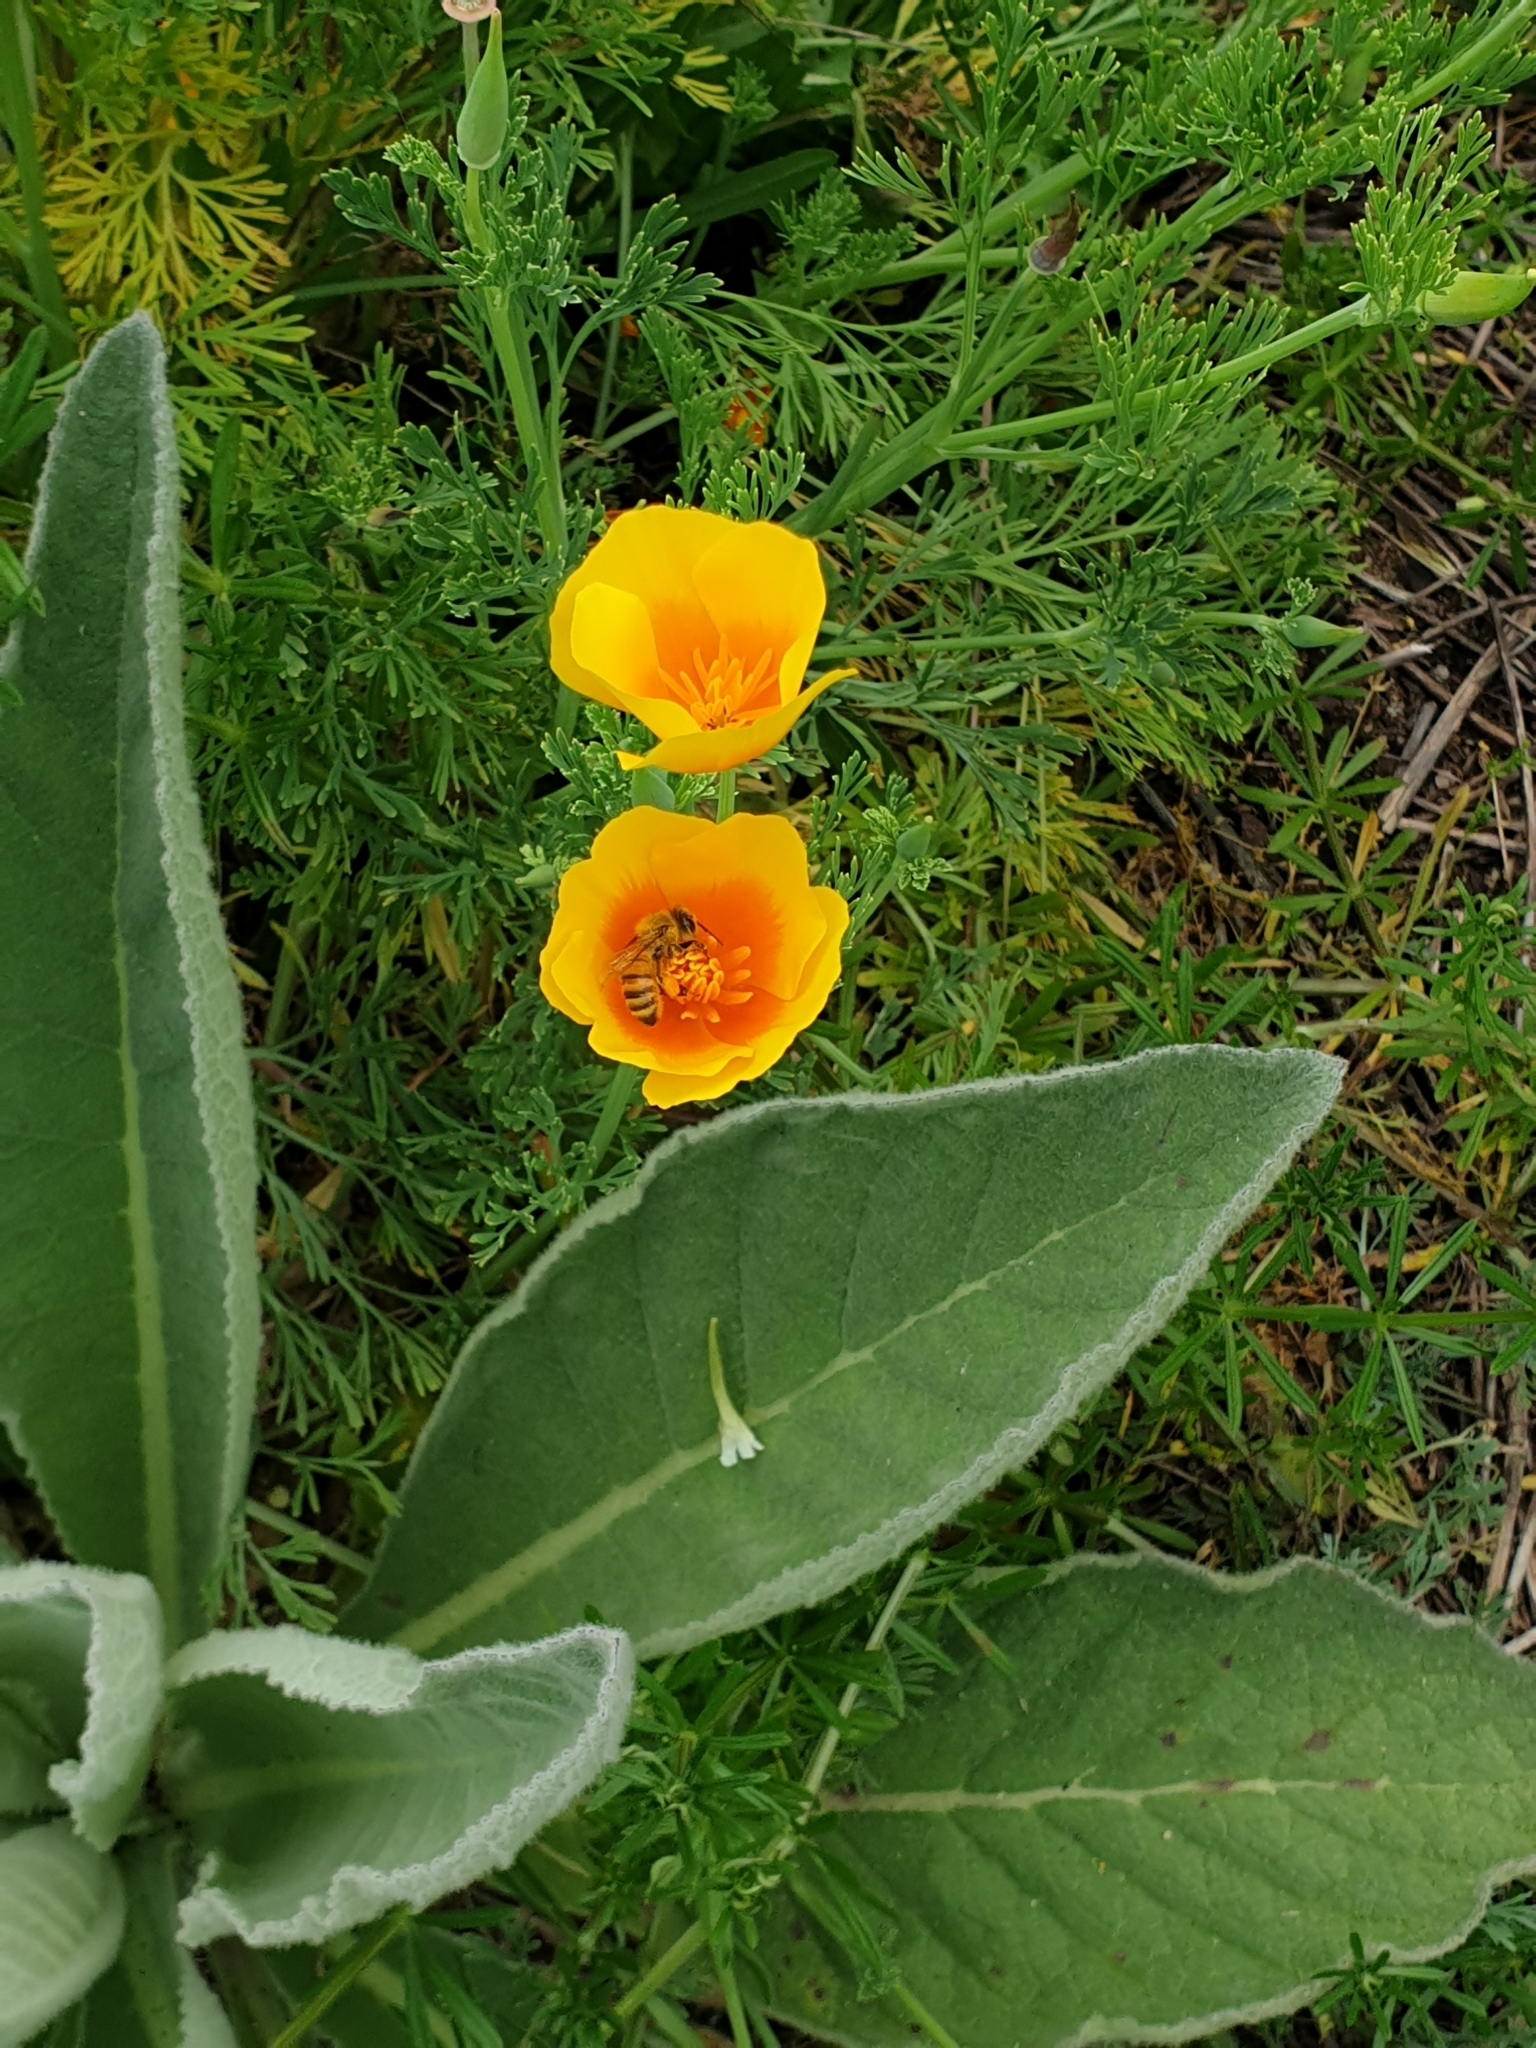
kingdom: Animalia
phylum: Arthropoda
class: Insecta
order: Hymenoptera
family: Apidae
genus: Apis
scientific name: Apis mellifera
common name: Honey bee
